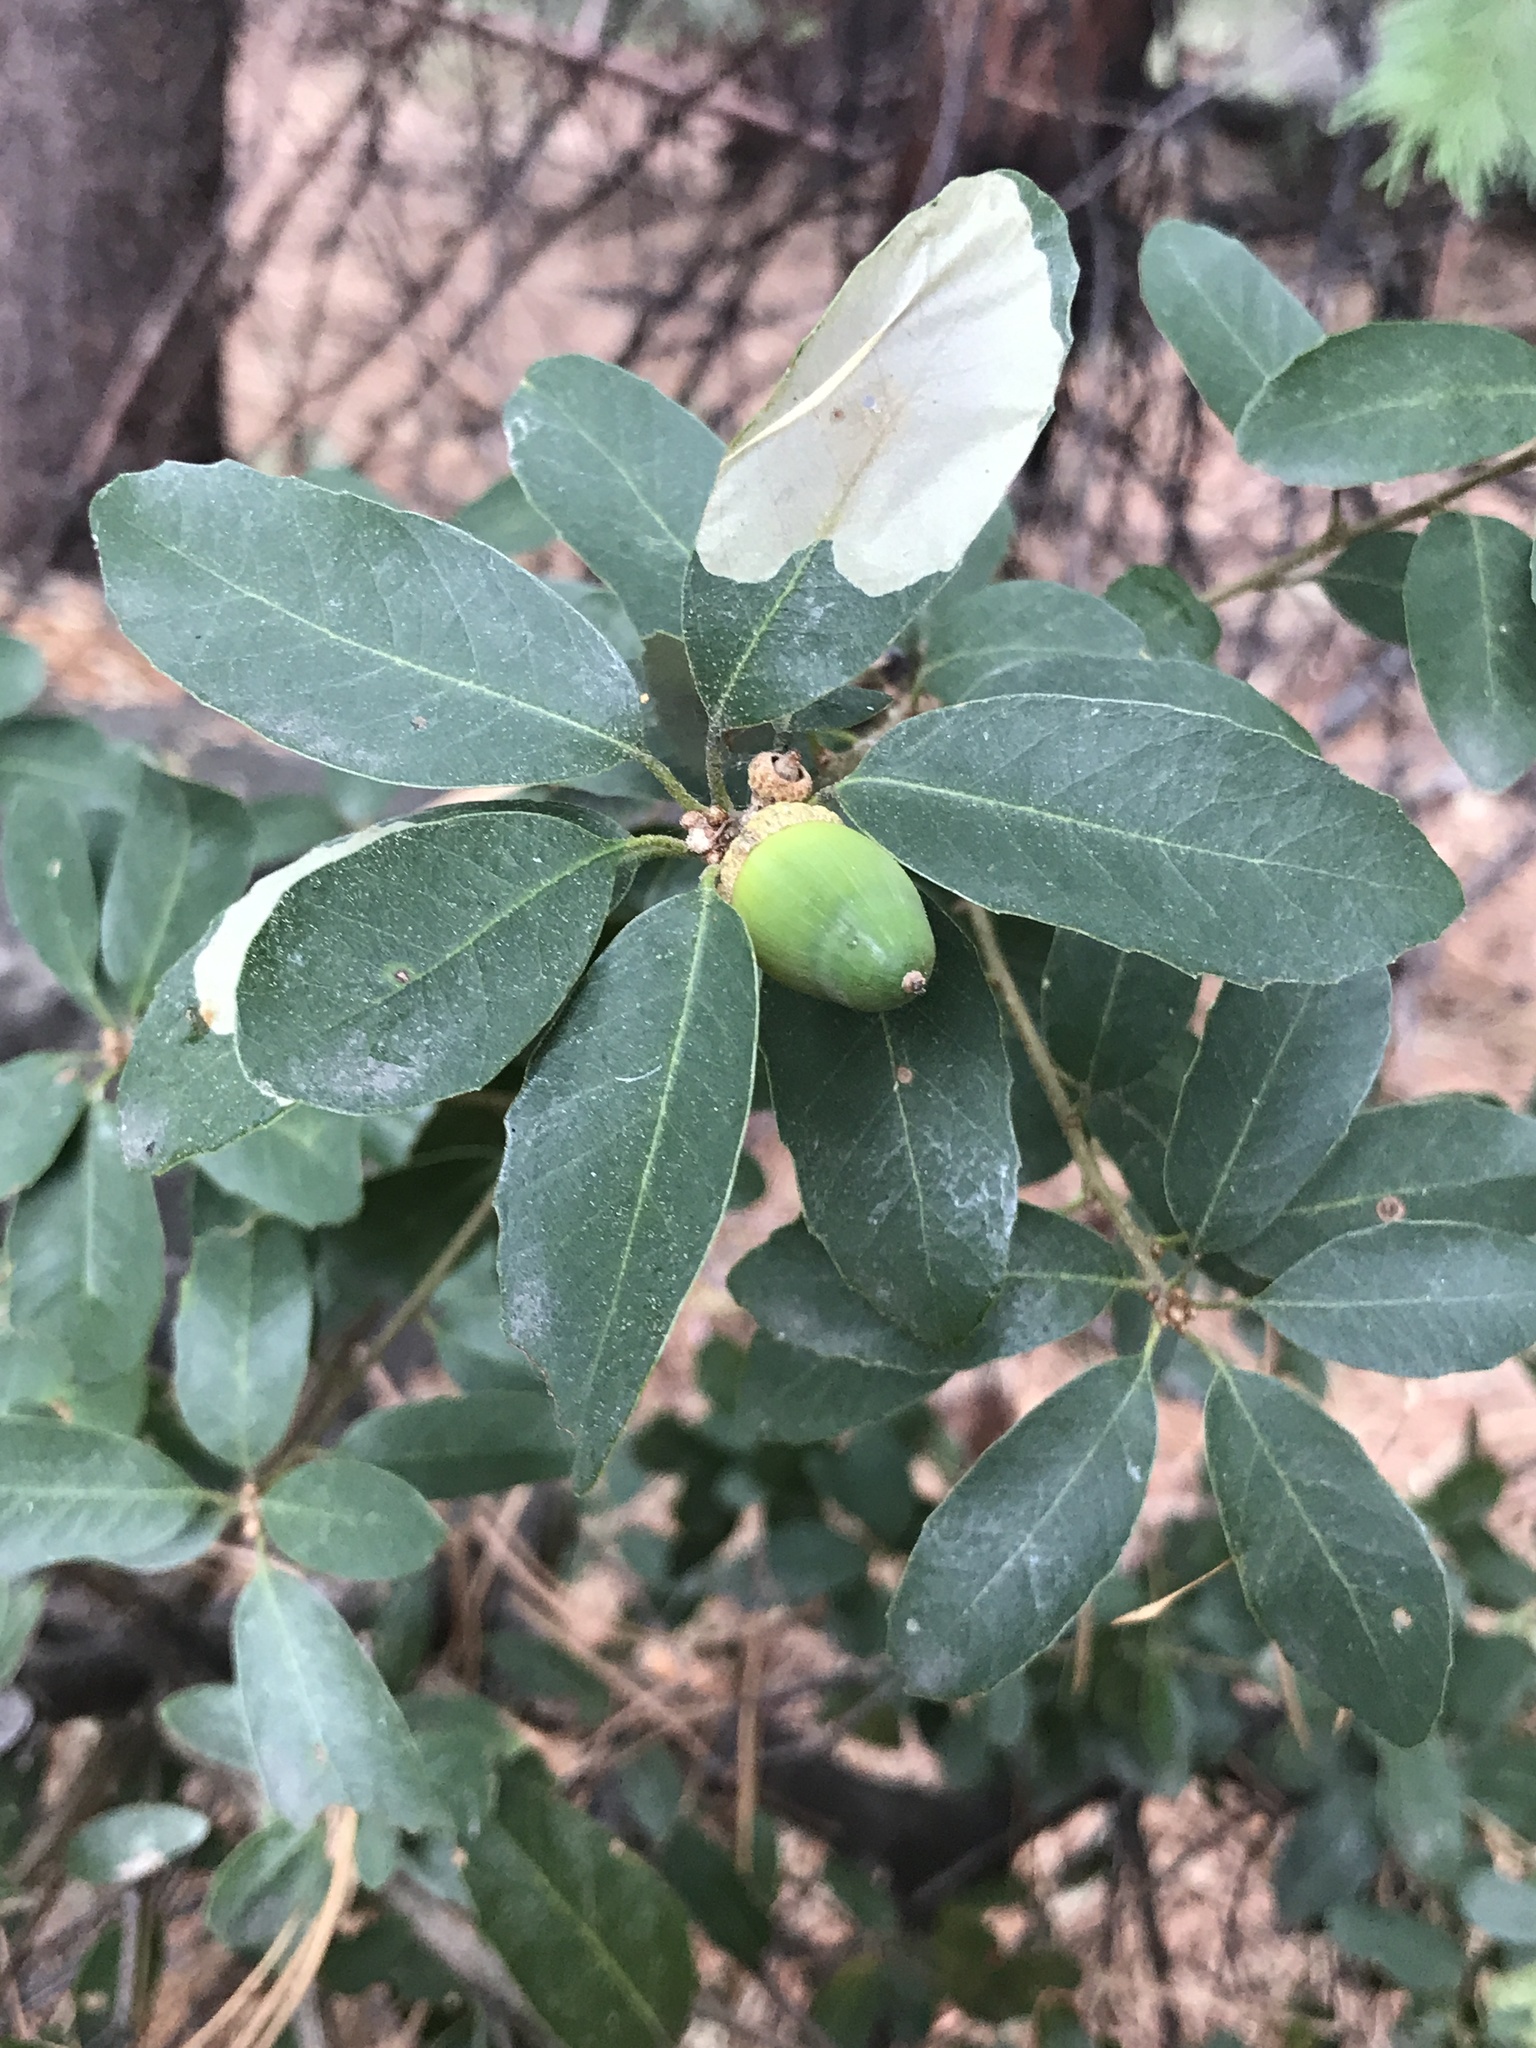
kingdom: Plantae
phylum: Tracheophyta
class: Magnoliopsida
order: Fagales
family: Fagaceae
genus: Quercus
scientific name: Quercus vacciniifolia
